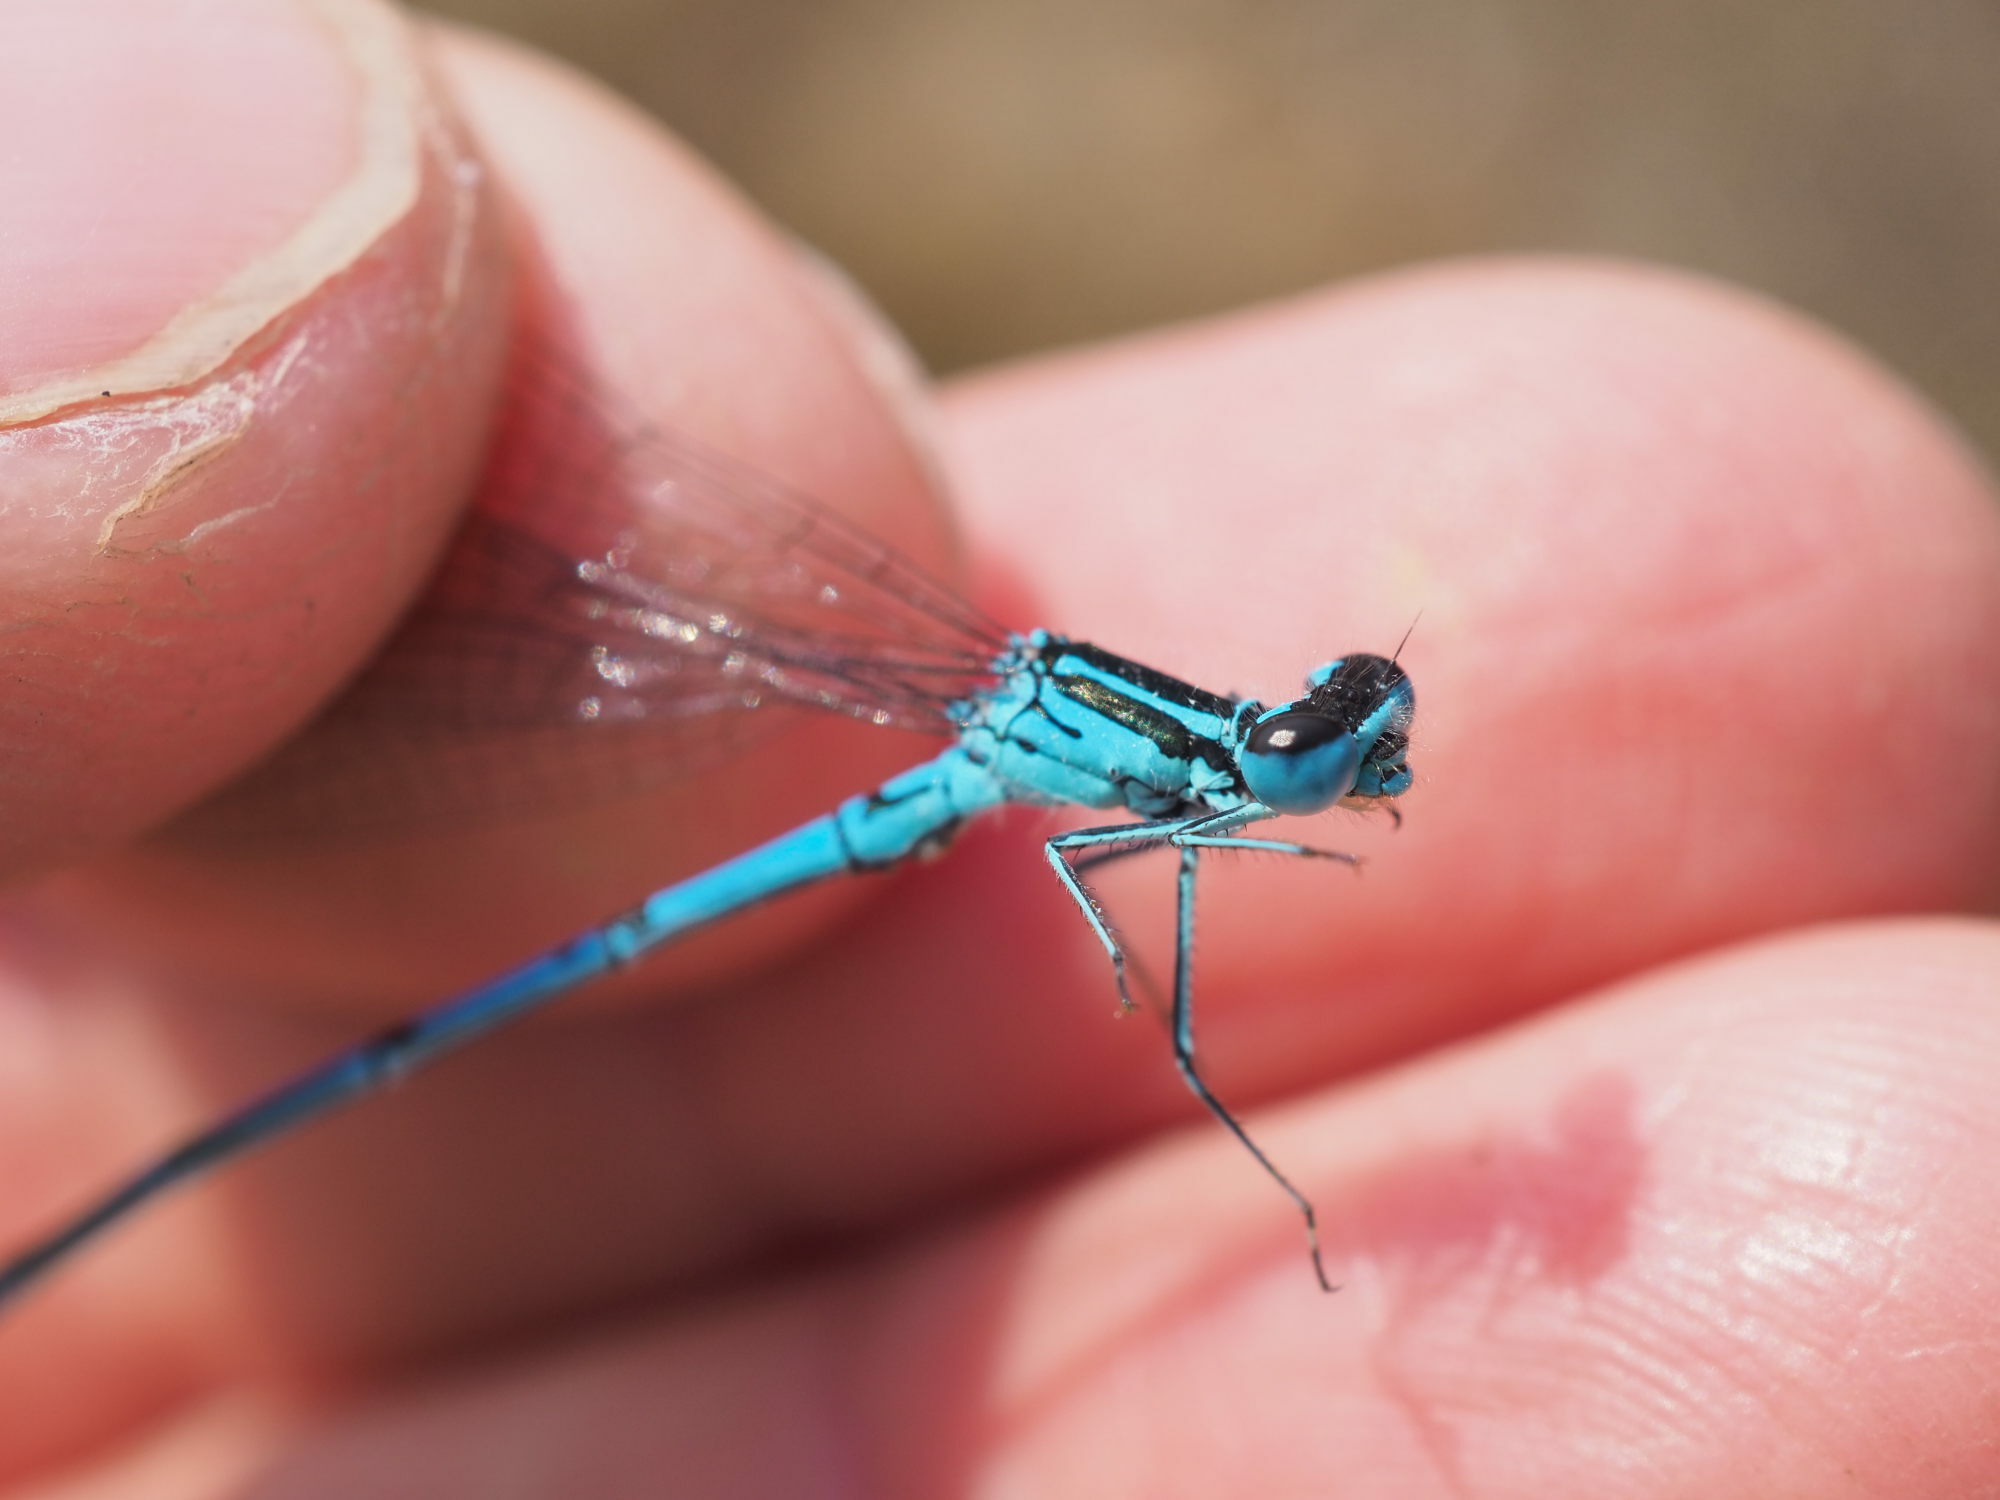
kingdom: Animalia
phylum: Arthropoda
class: Insecta
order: Odonata
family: Coenagrionidae
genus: Coenagrion
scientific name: Coenagrion puella
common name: Azure damselfly
